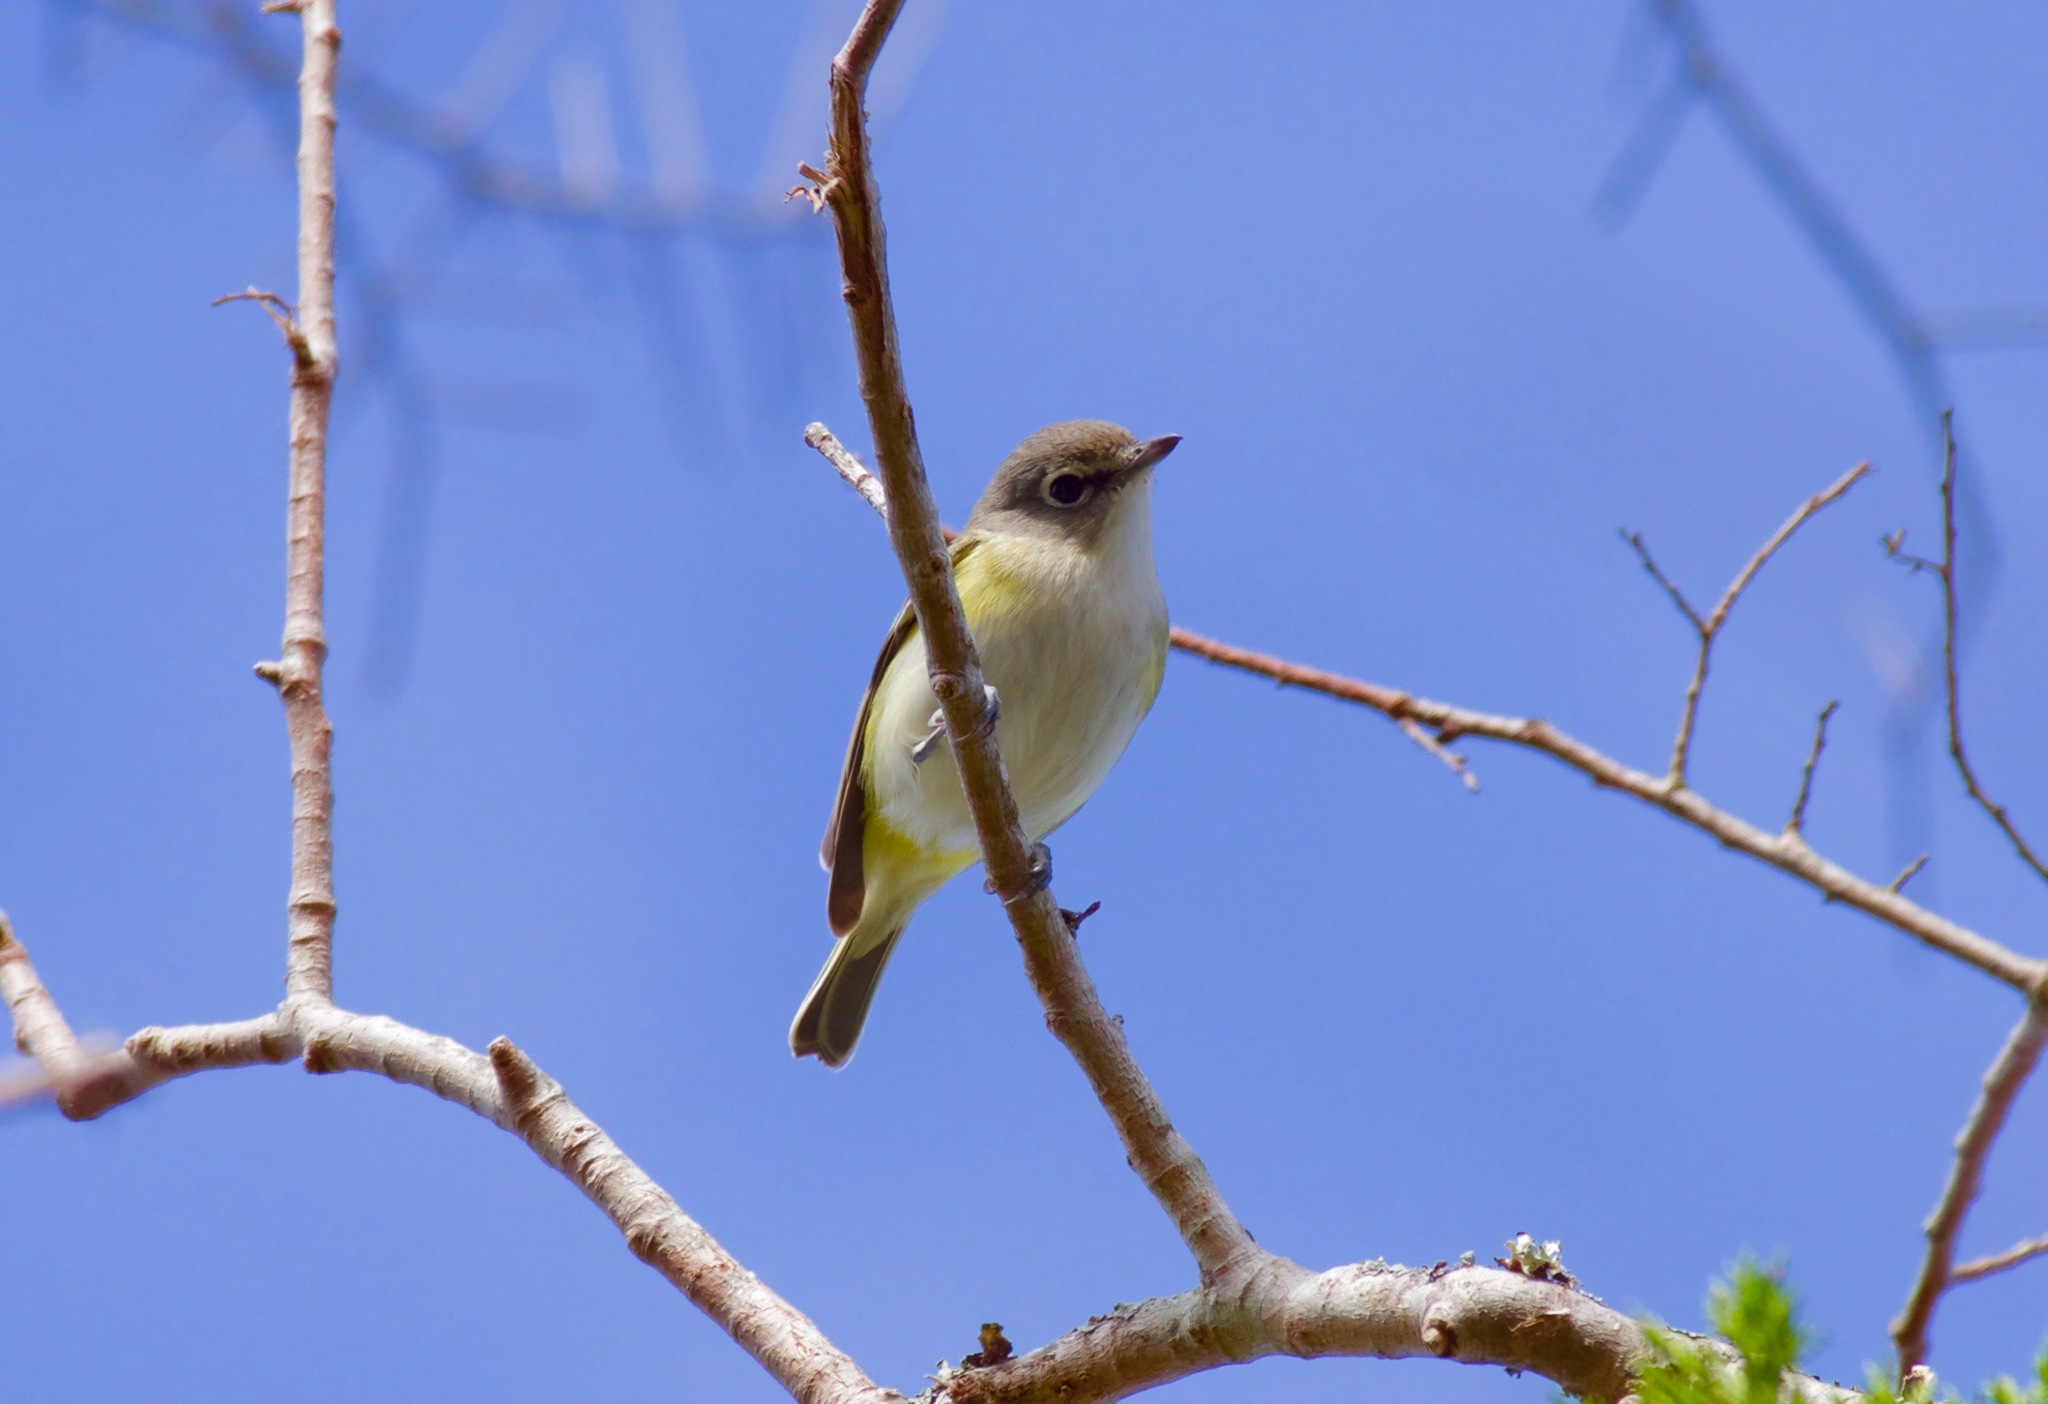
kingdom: Animalia
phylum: Chordata
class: Aves
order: Passeriformes
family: Vireonidae
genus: Vireo
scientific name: Vireo solitarius
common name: Blue-headed vireo
